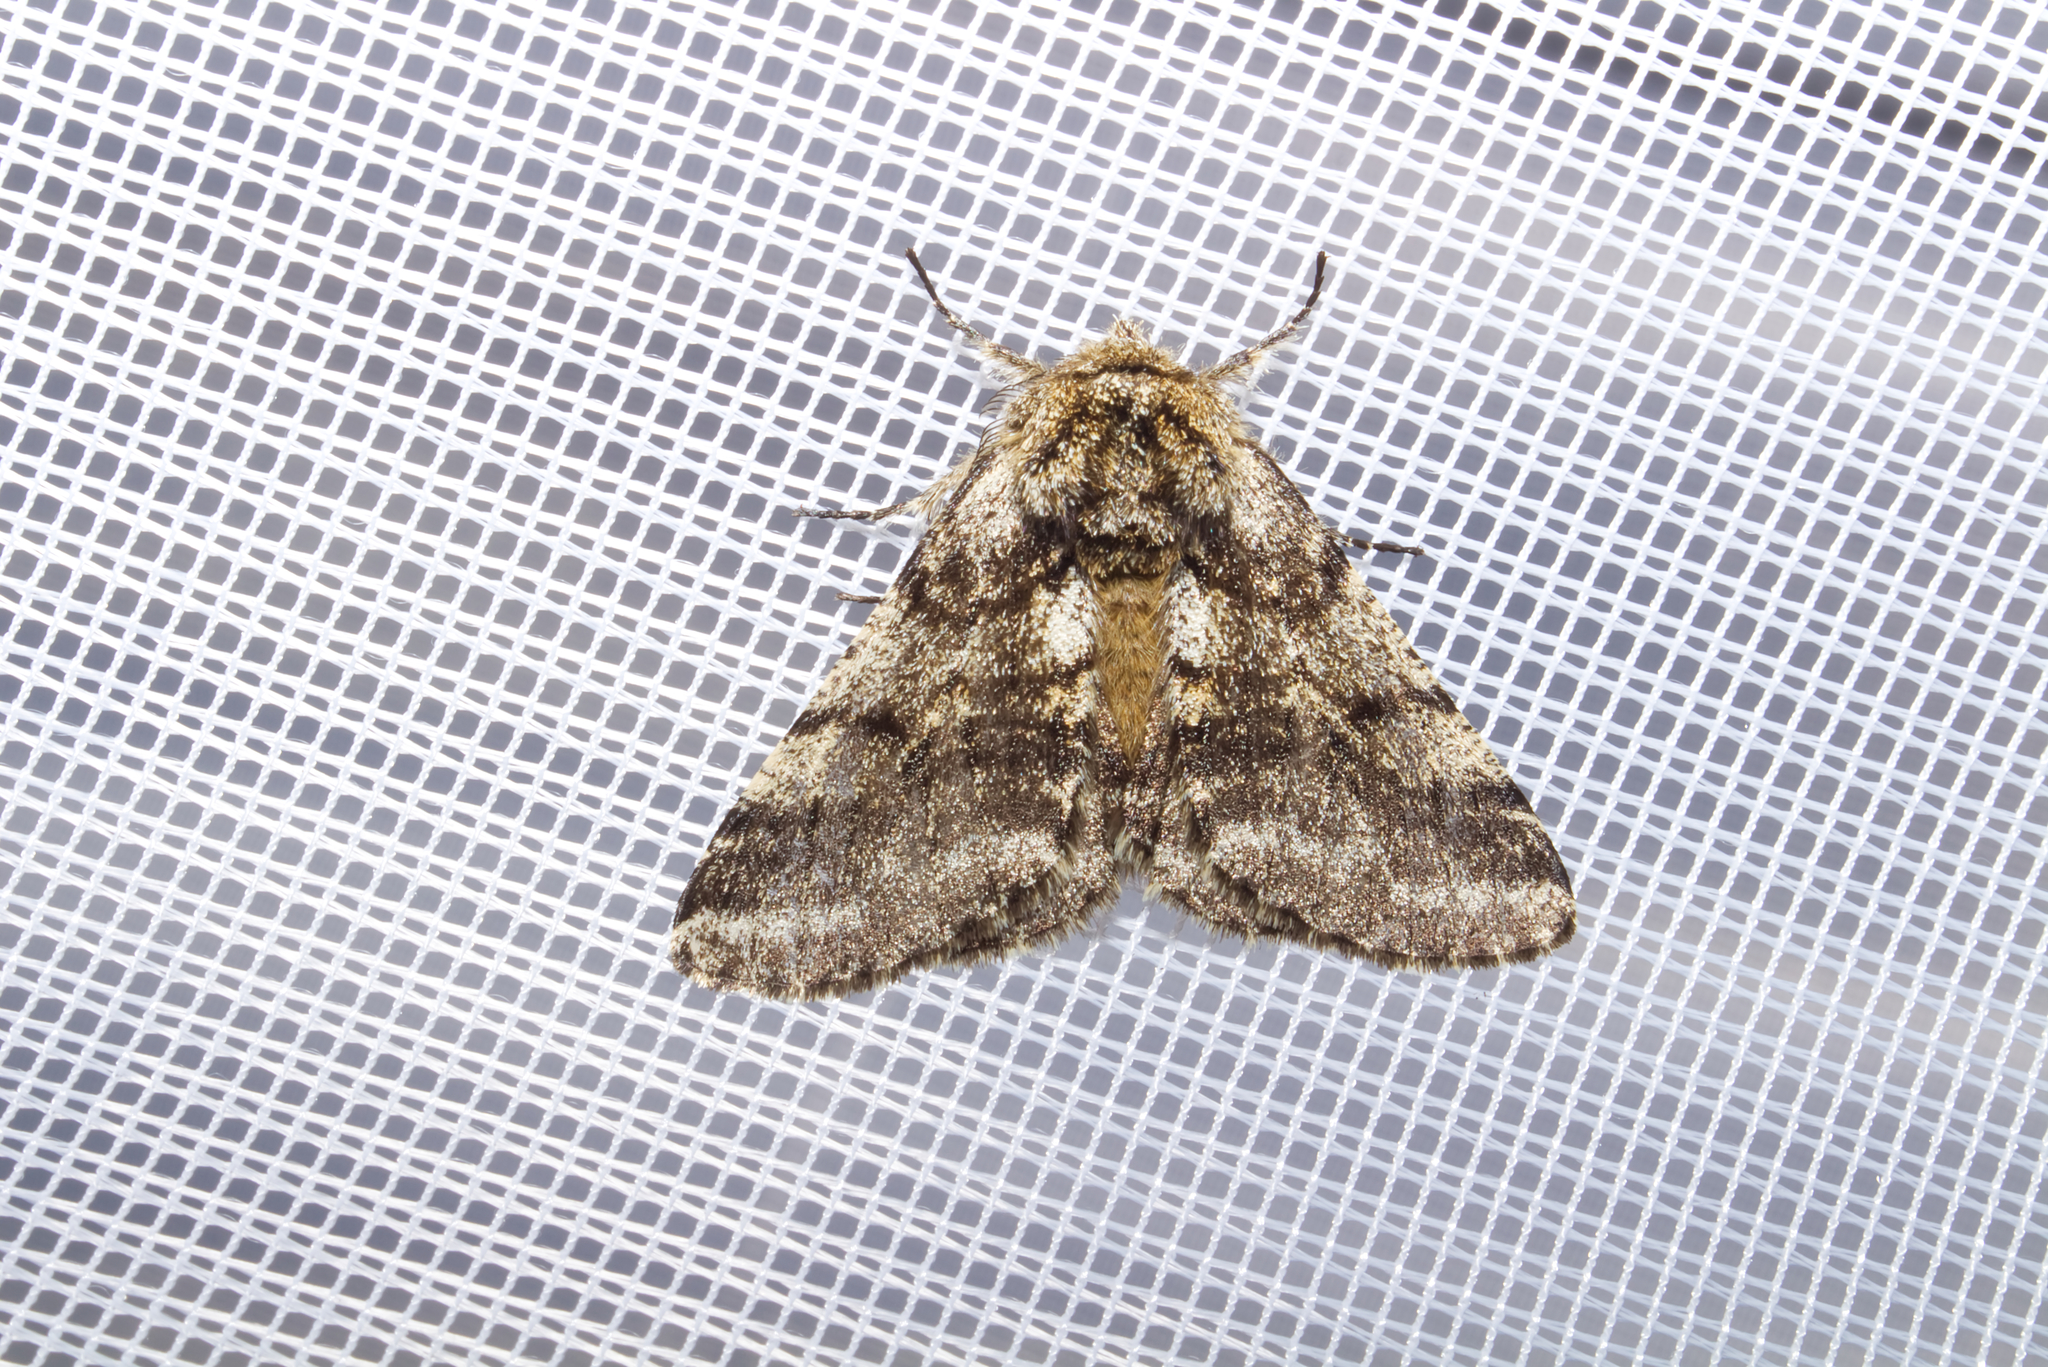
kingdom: Animalia
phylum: Arthropoda
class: Insecta
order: Lepidoptera
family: Geometridae
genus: Lycia
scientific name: Lycia hirtaria
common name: Brindled beauty
